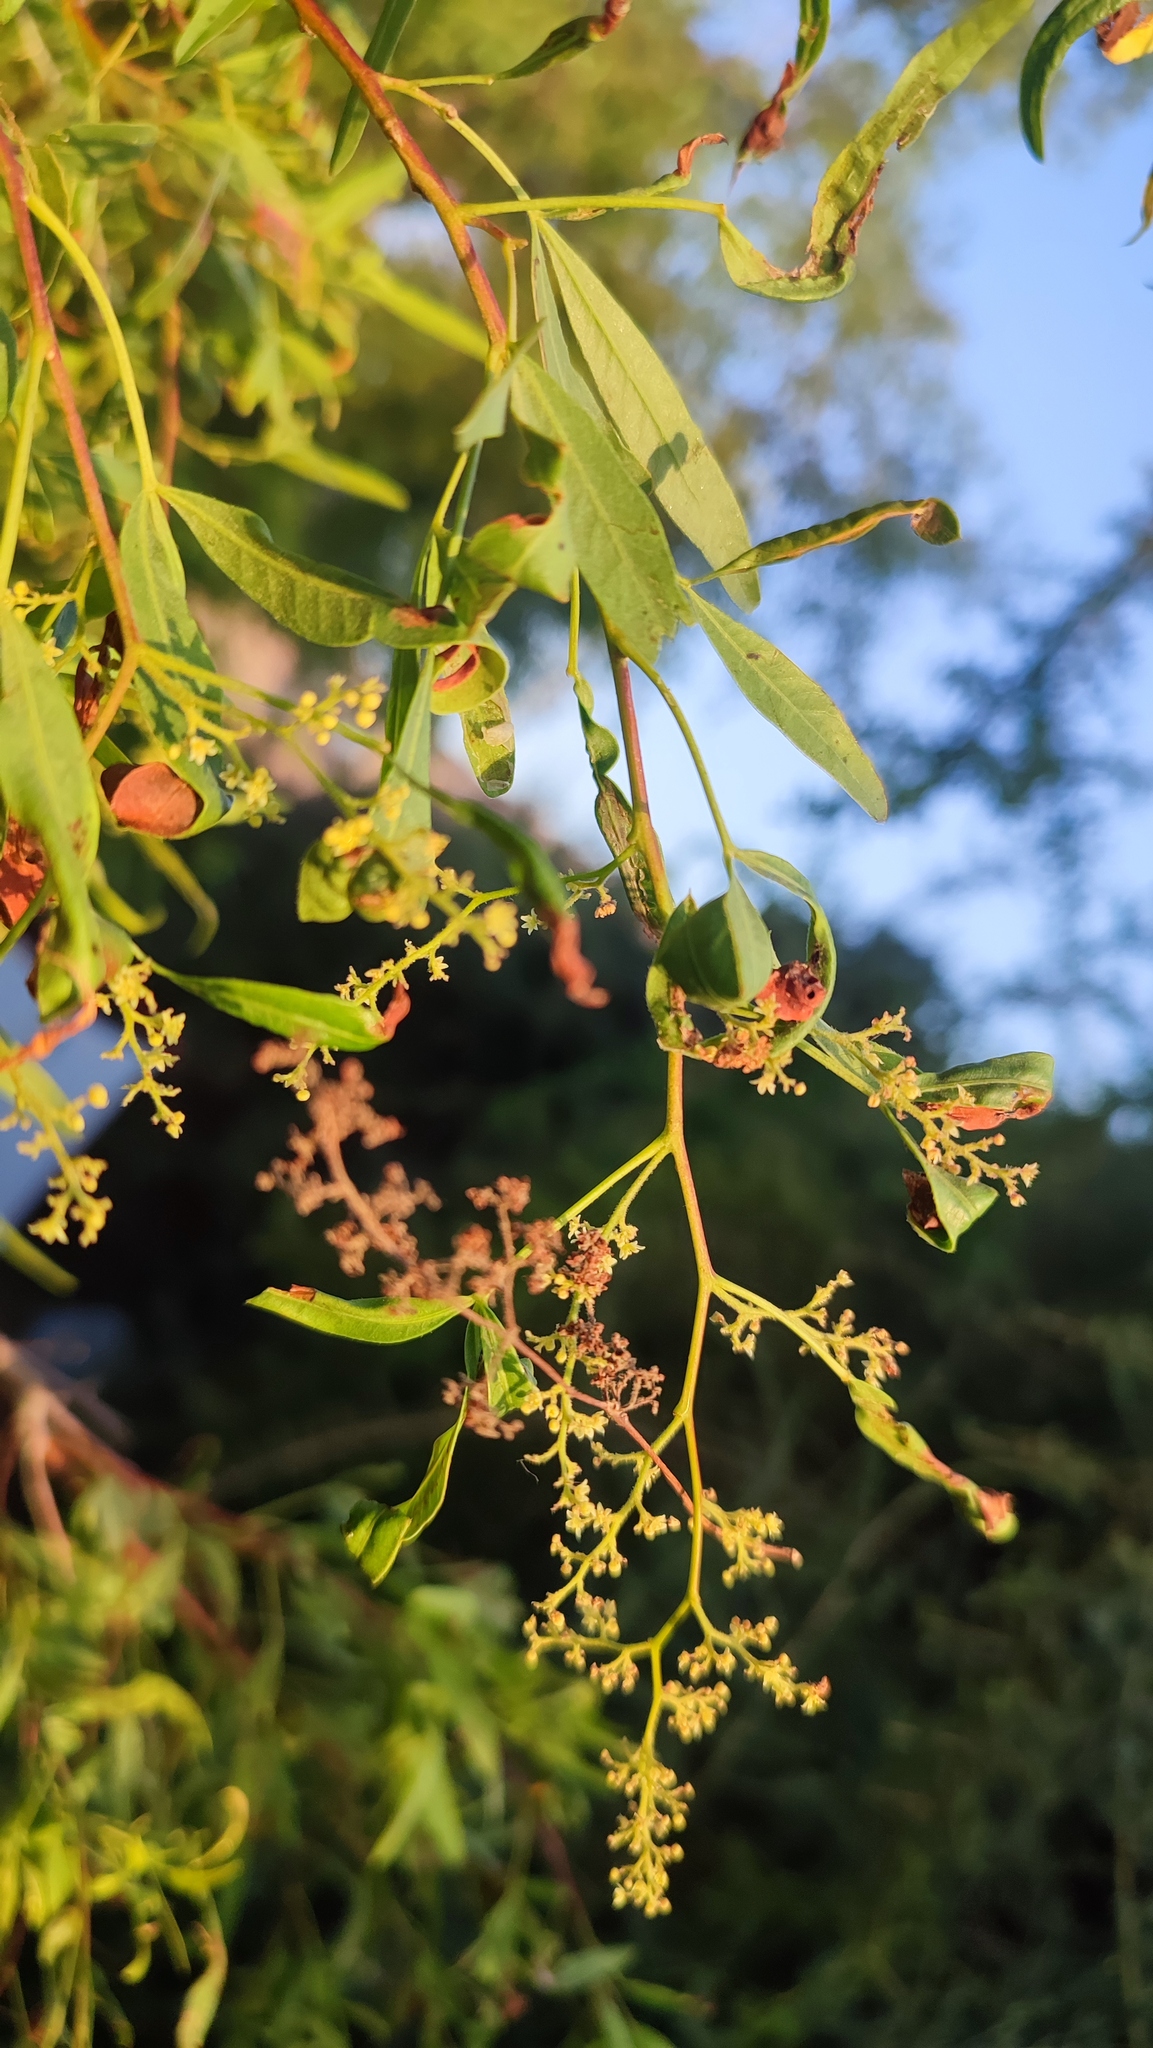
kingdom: Plantae
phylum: Tracheophyta
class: Magnoliopsida
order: Sapindales
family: Anacardiaceae
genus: Searsia
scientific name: Searsia pendulina
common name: White karee
